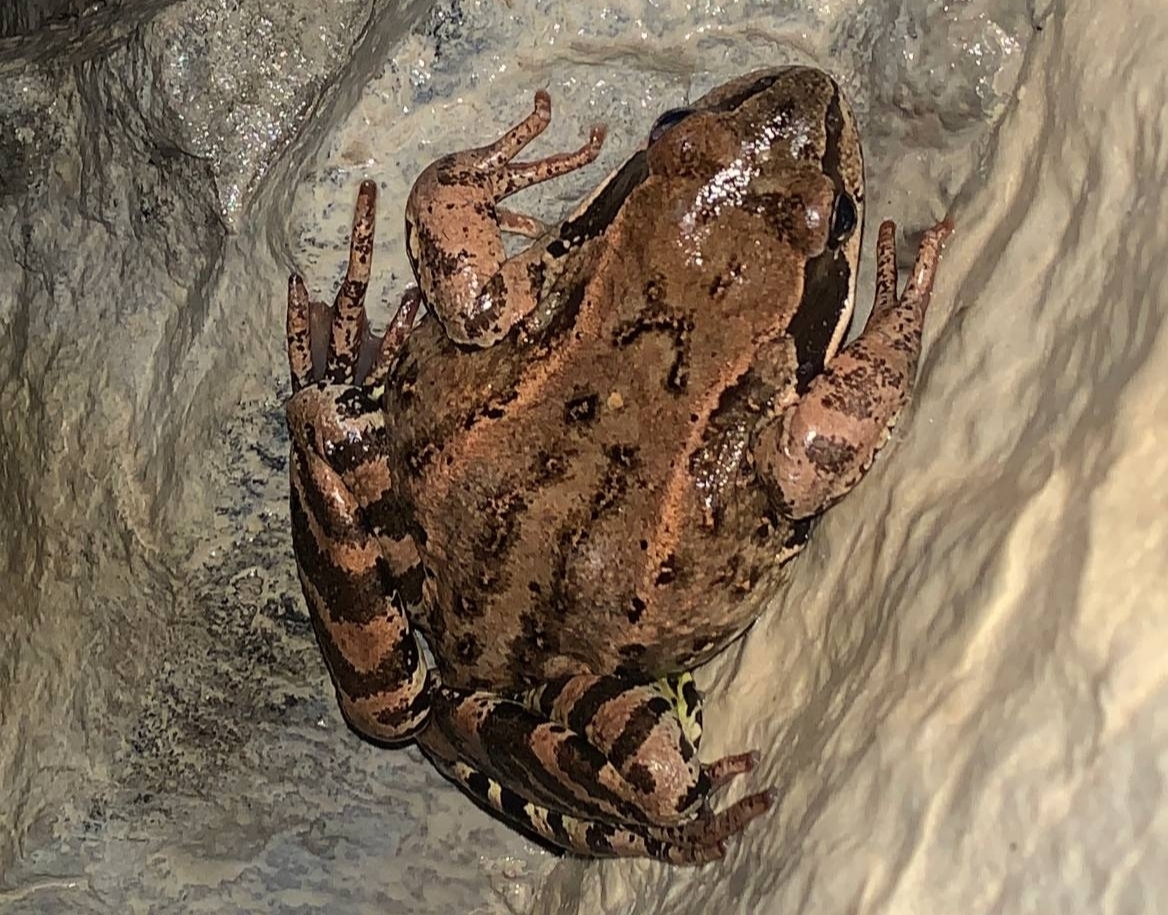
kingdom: Animalia
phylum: Chordata
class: Amphibia
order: Anura
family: Ranidae
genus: Rana
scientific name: Rana temporaria
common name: Common frog
